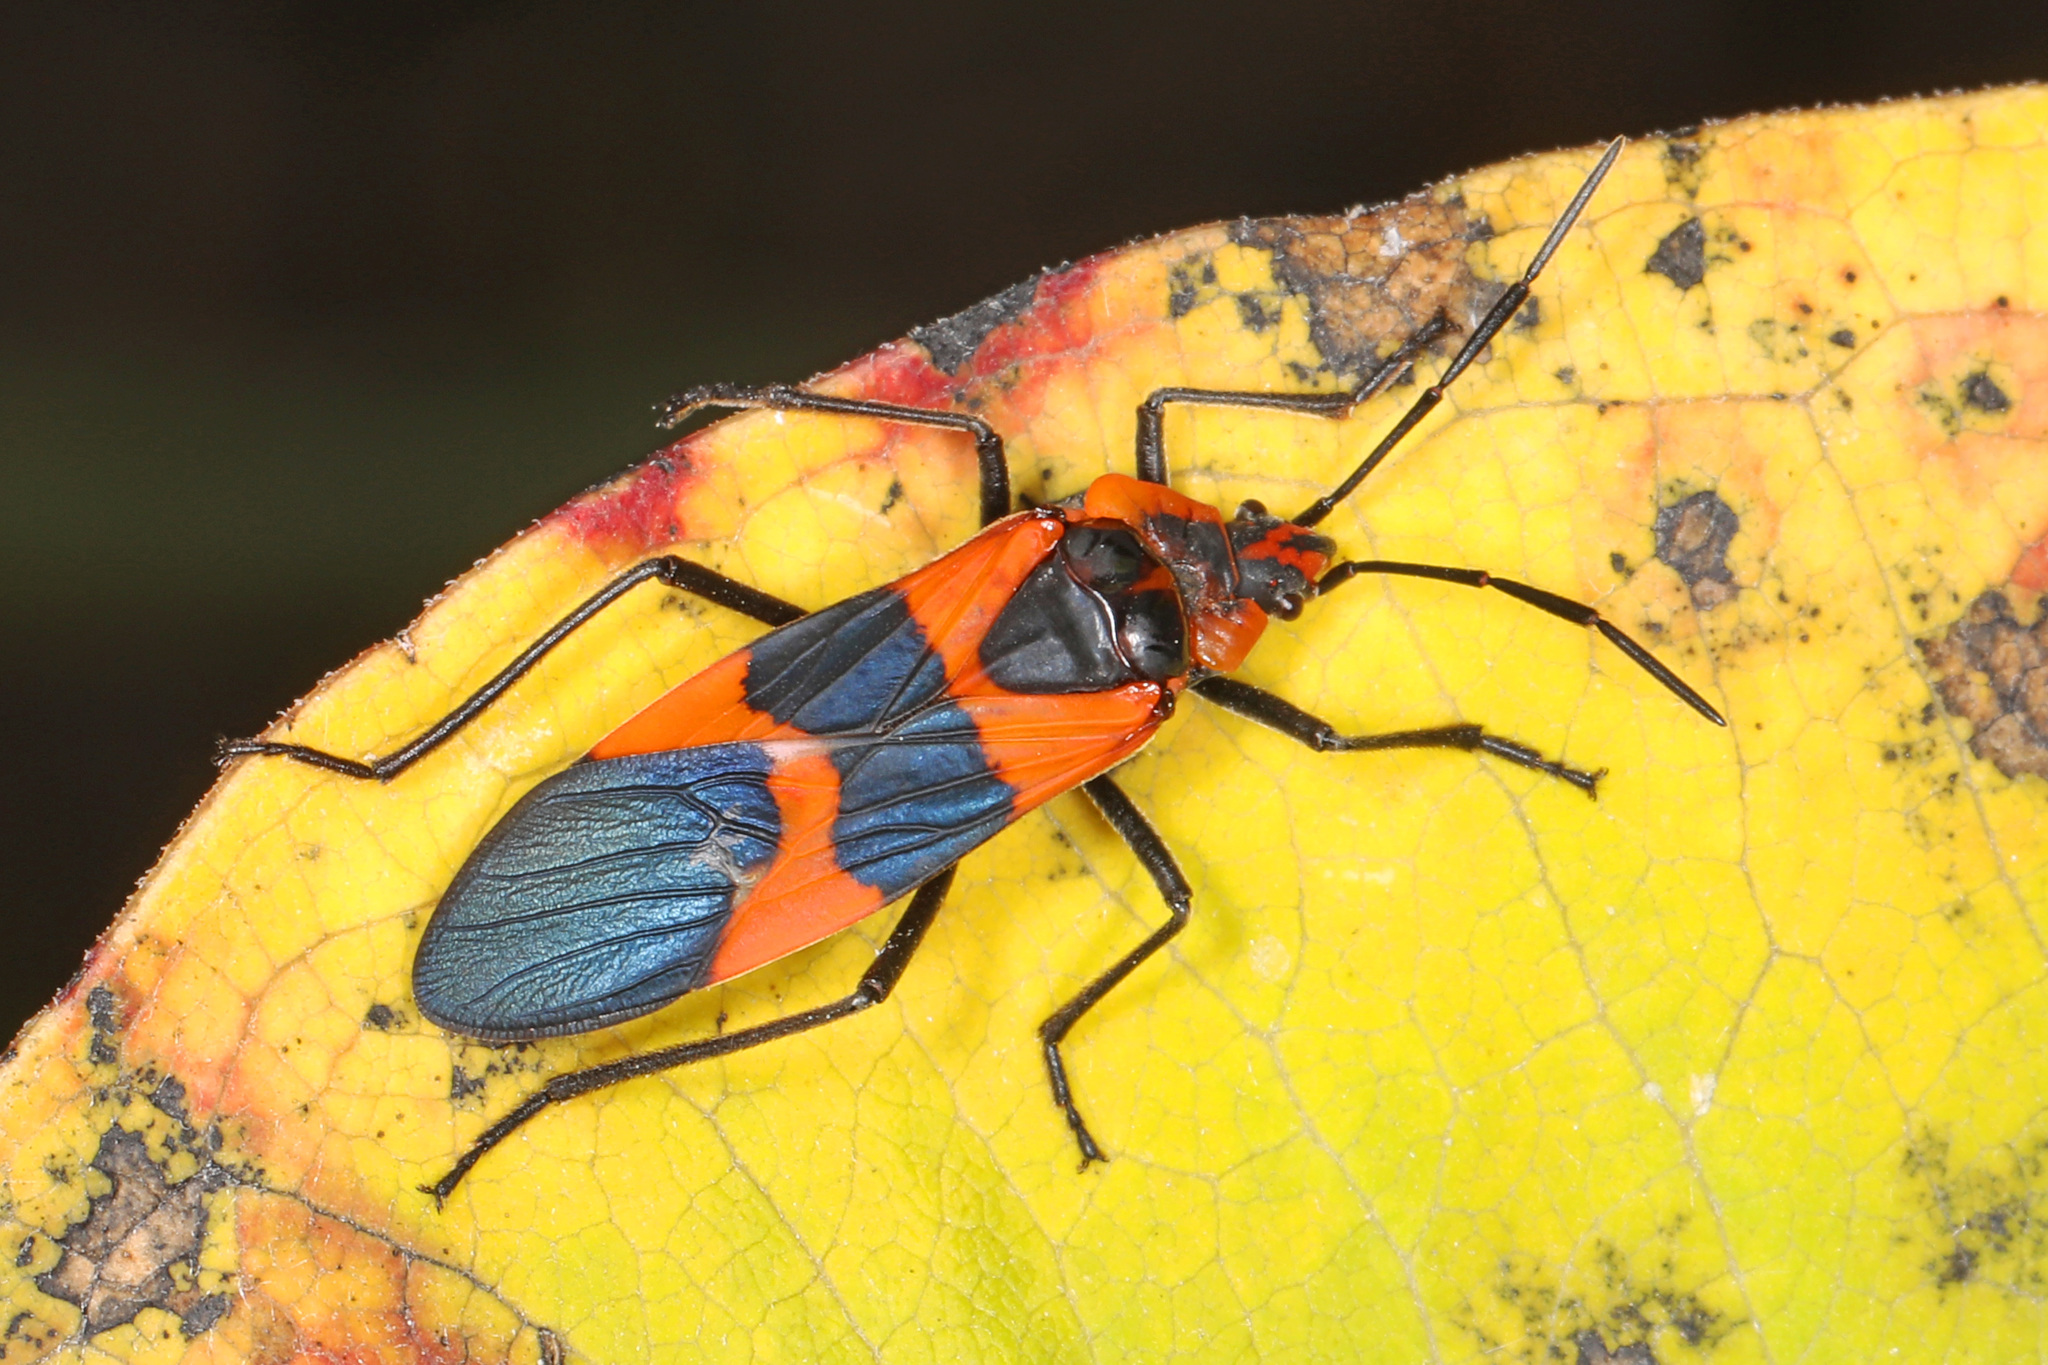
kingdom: Animalia
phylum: Arthropoda
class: Insecta
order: Hemiptera
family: Lygaeidae
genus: Oncopeltus
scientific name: Oncopeltus fasciatus
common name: Large milkweed bug
